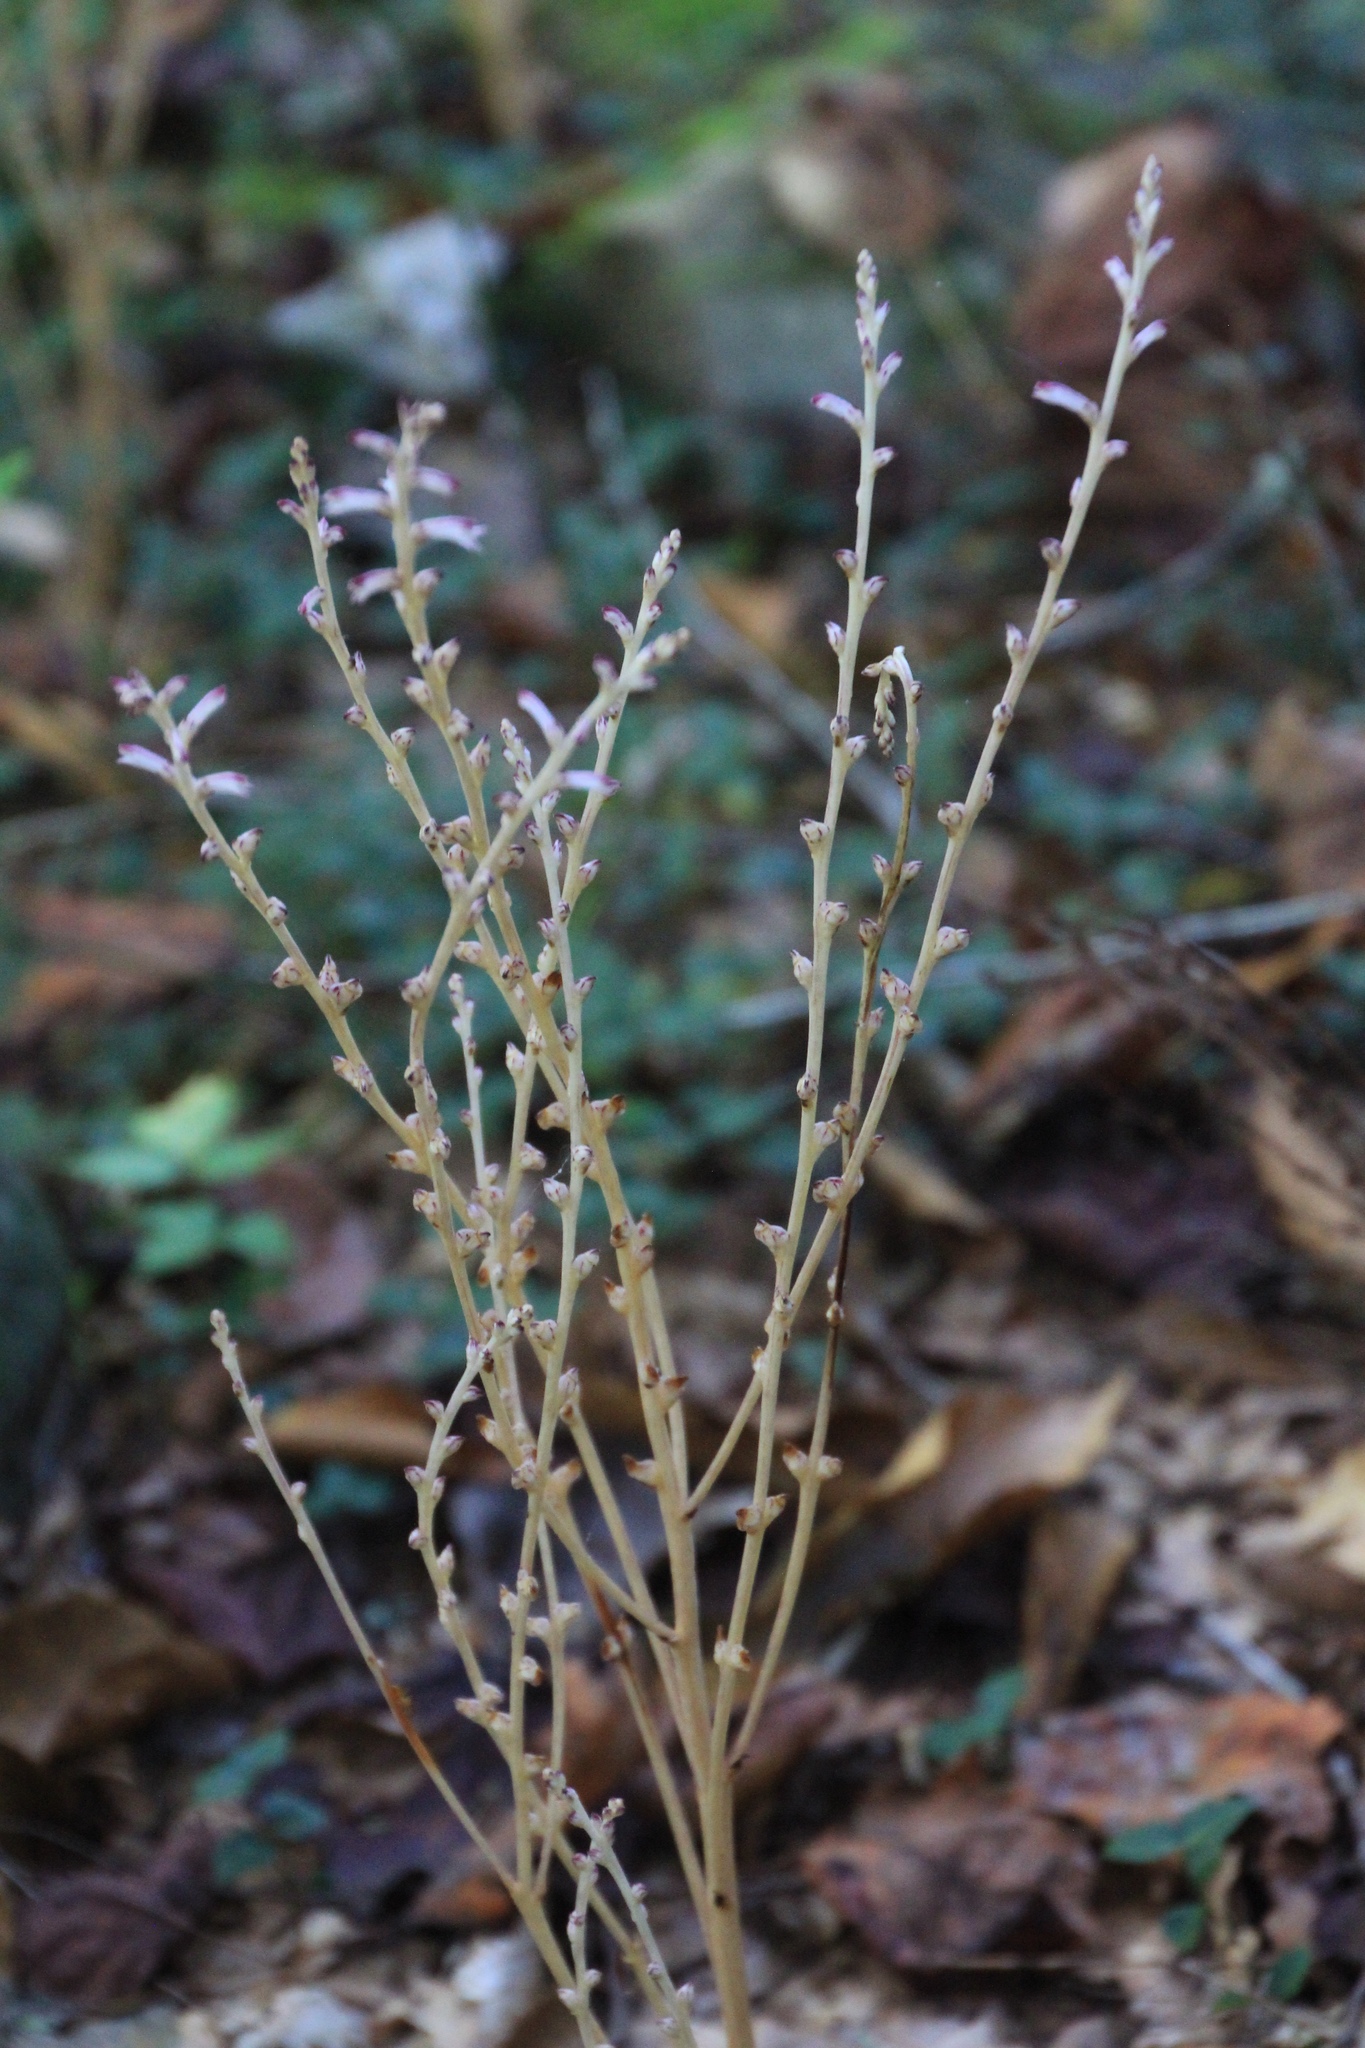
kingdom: Plantae
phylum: Tracheophyta
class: Magnoliopsida
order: Lamiales
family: Orobanchaceae
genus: Epifagus
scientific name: Epifagus virginiana
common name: Beechdrops
